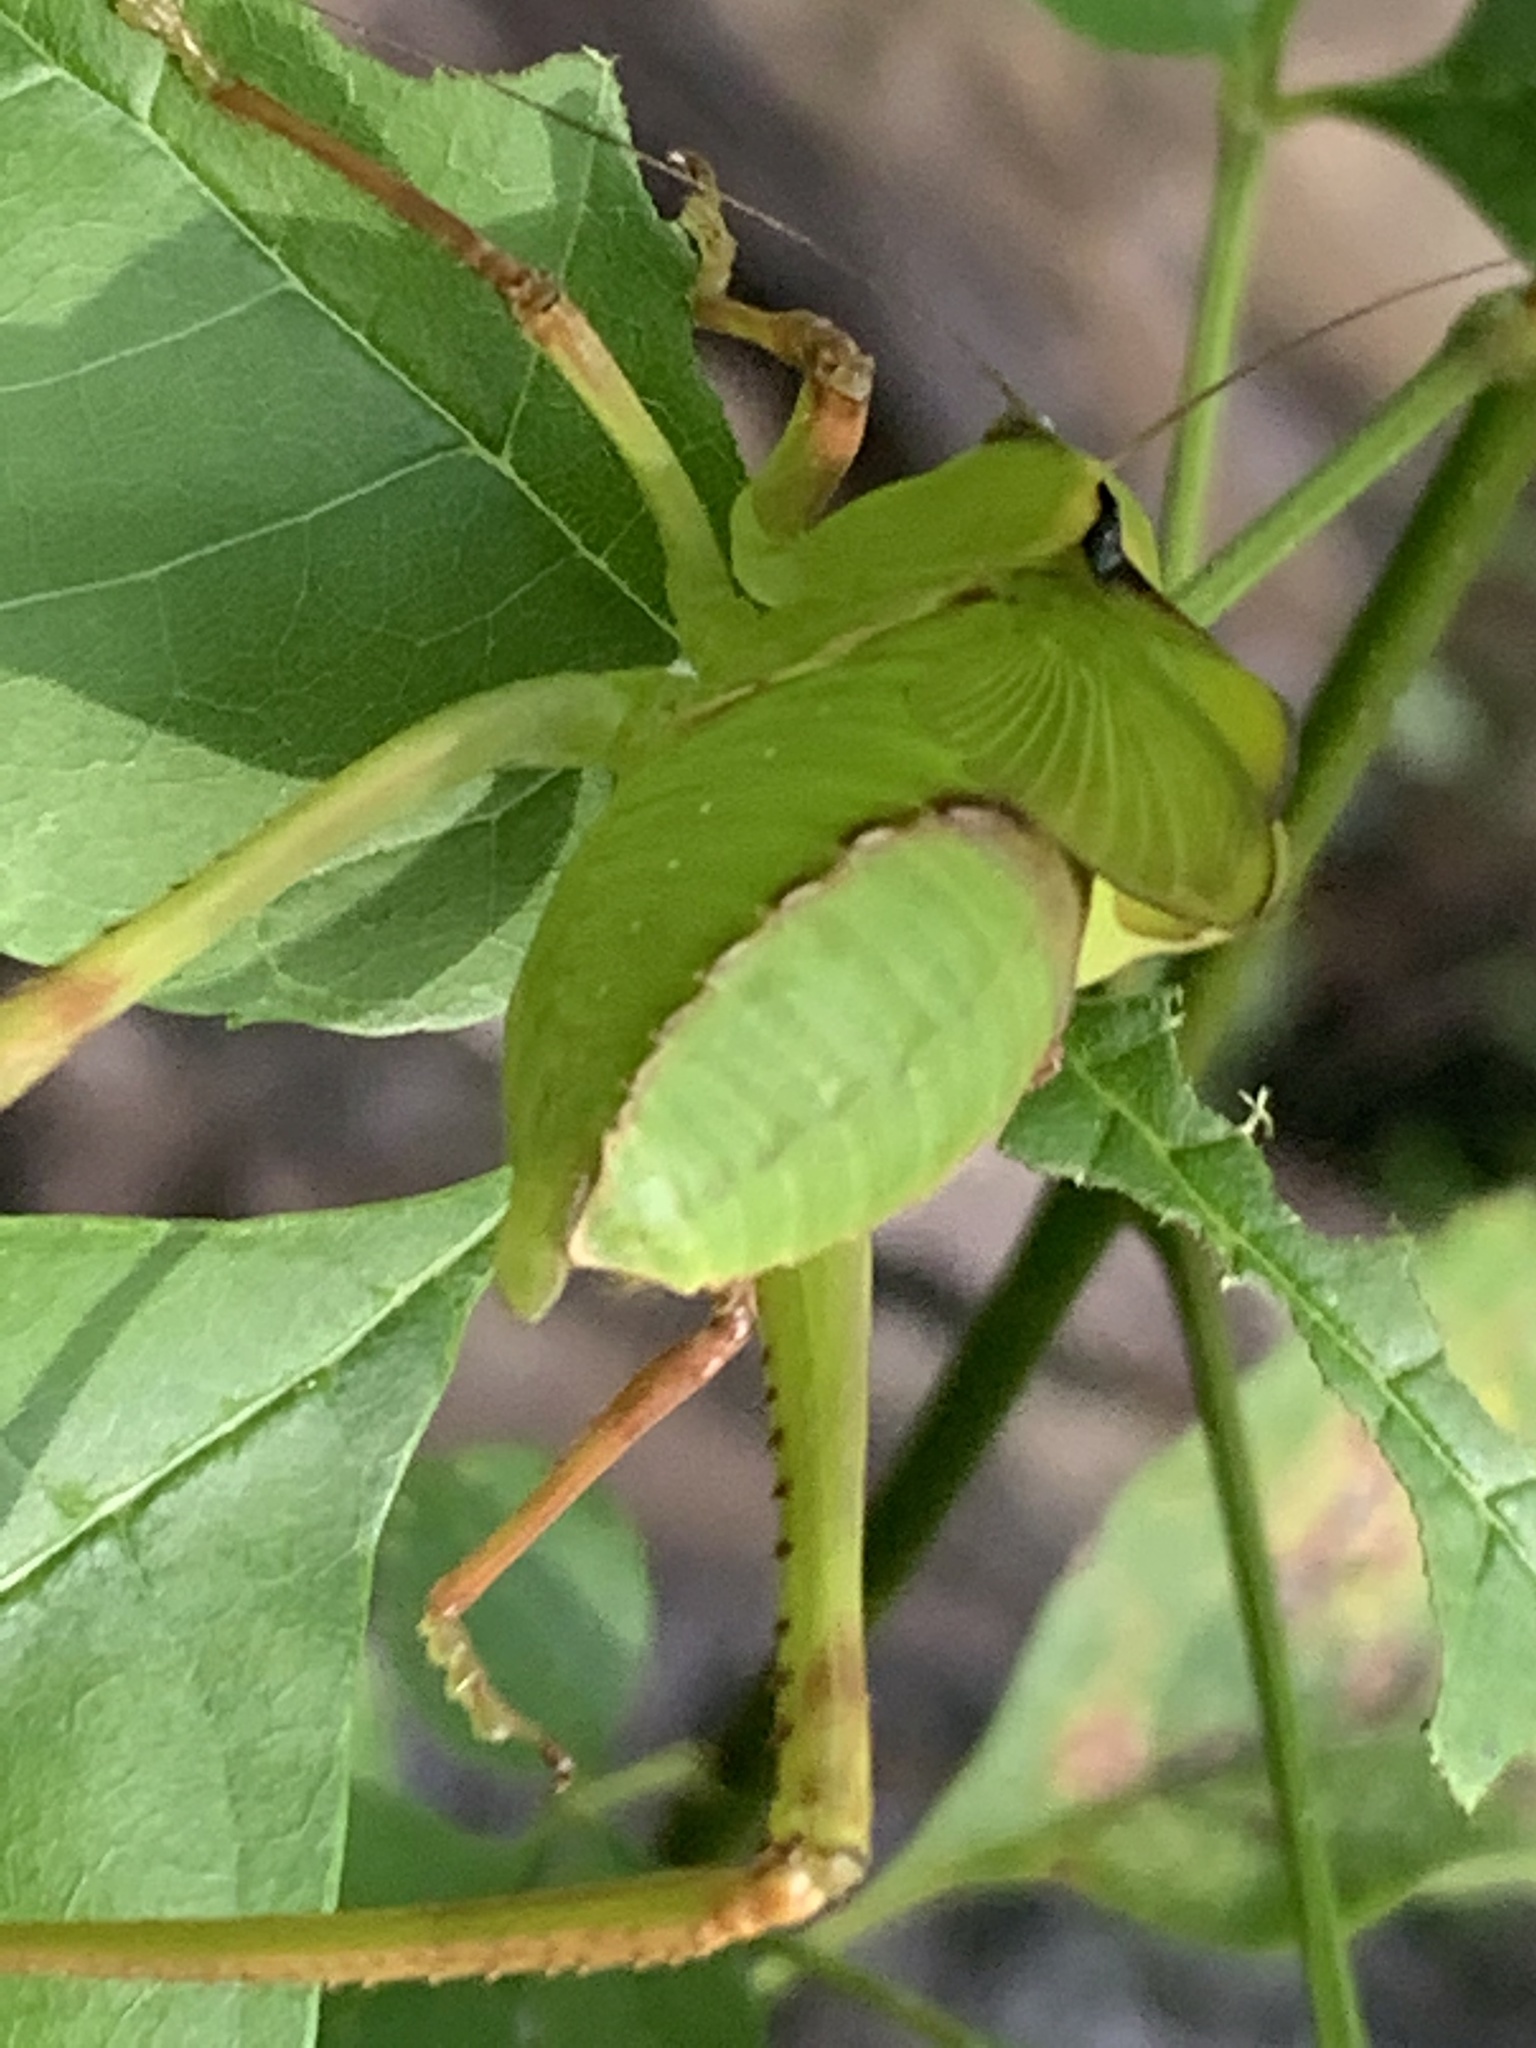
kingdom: Animalia
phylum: Arthropoda
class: Insecta
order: Orthoptera
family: Tettigoniidae
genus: Stilpnochlora
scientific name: Stilpnochlora couloniana
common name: Giant katydid
